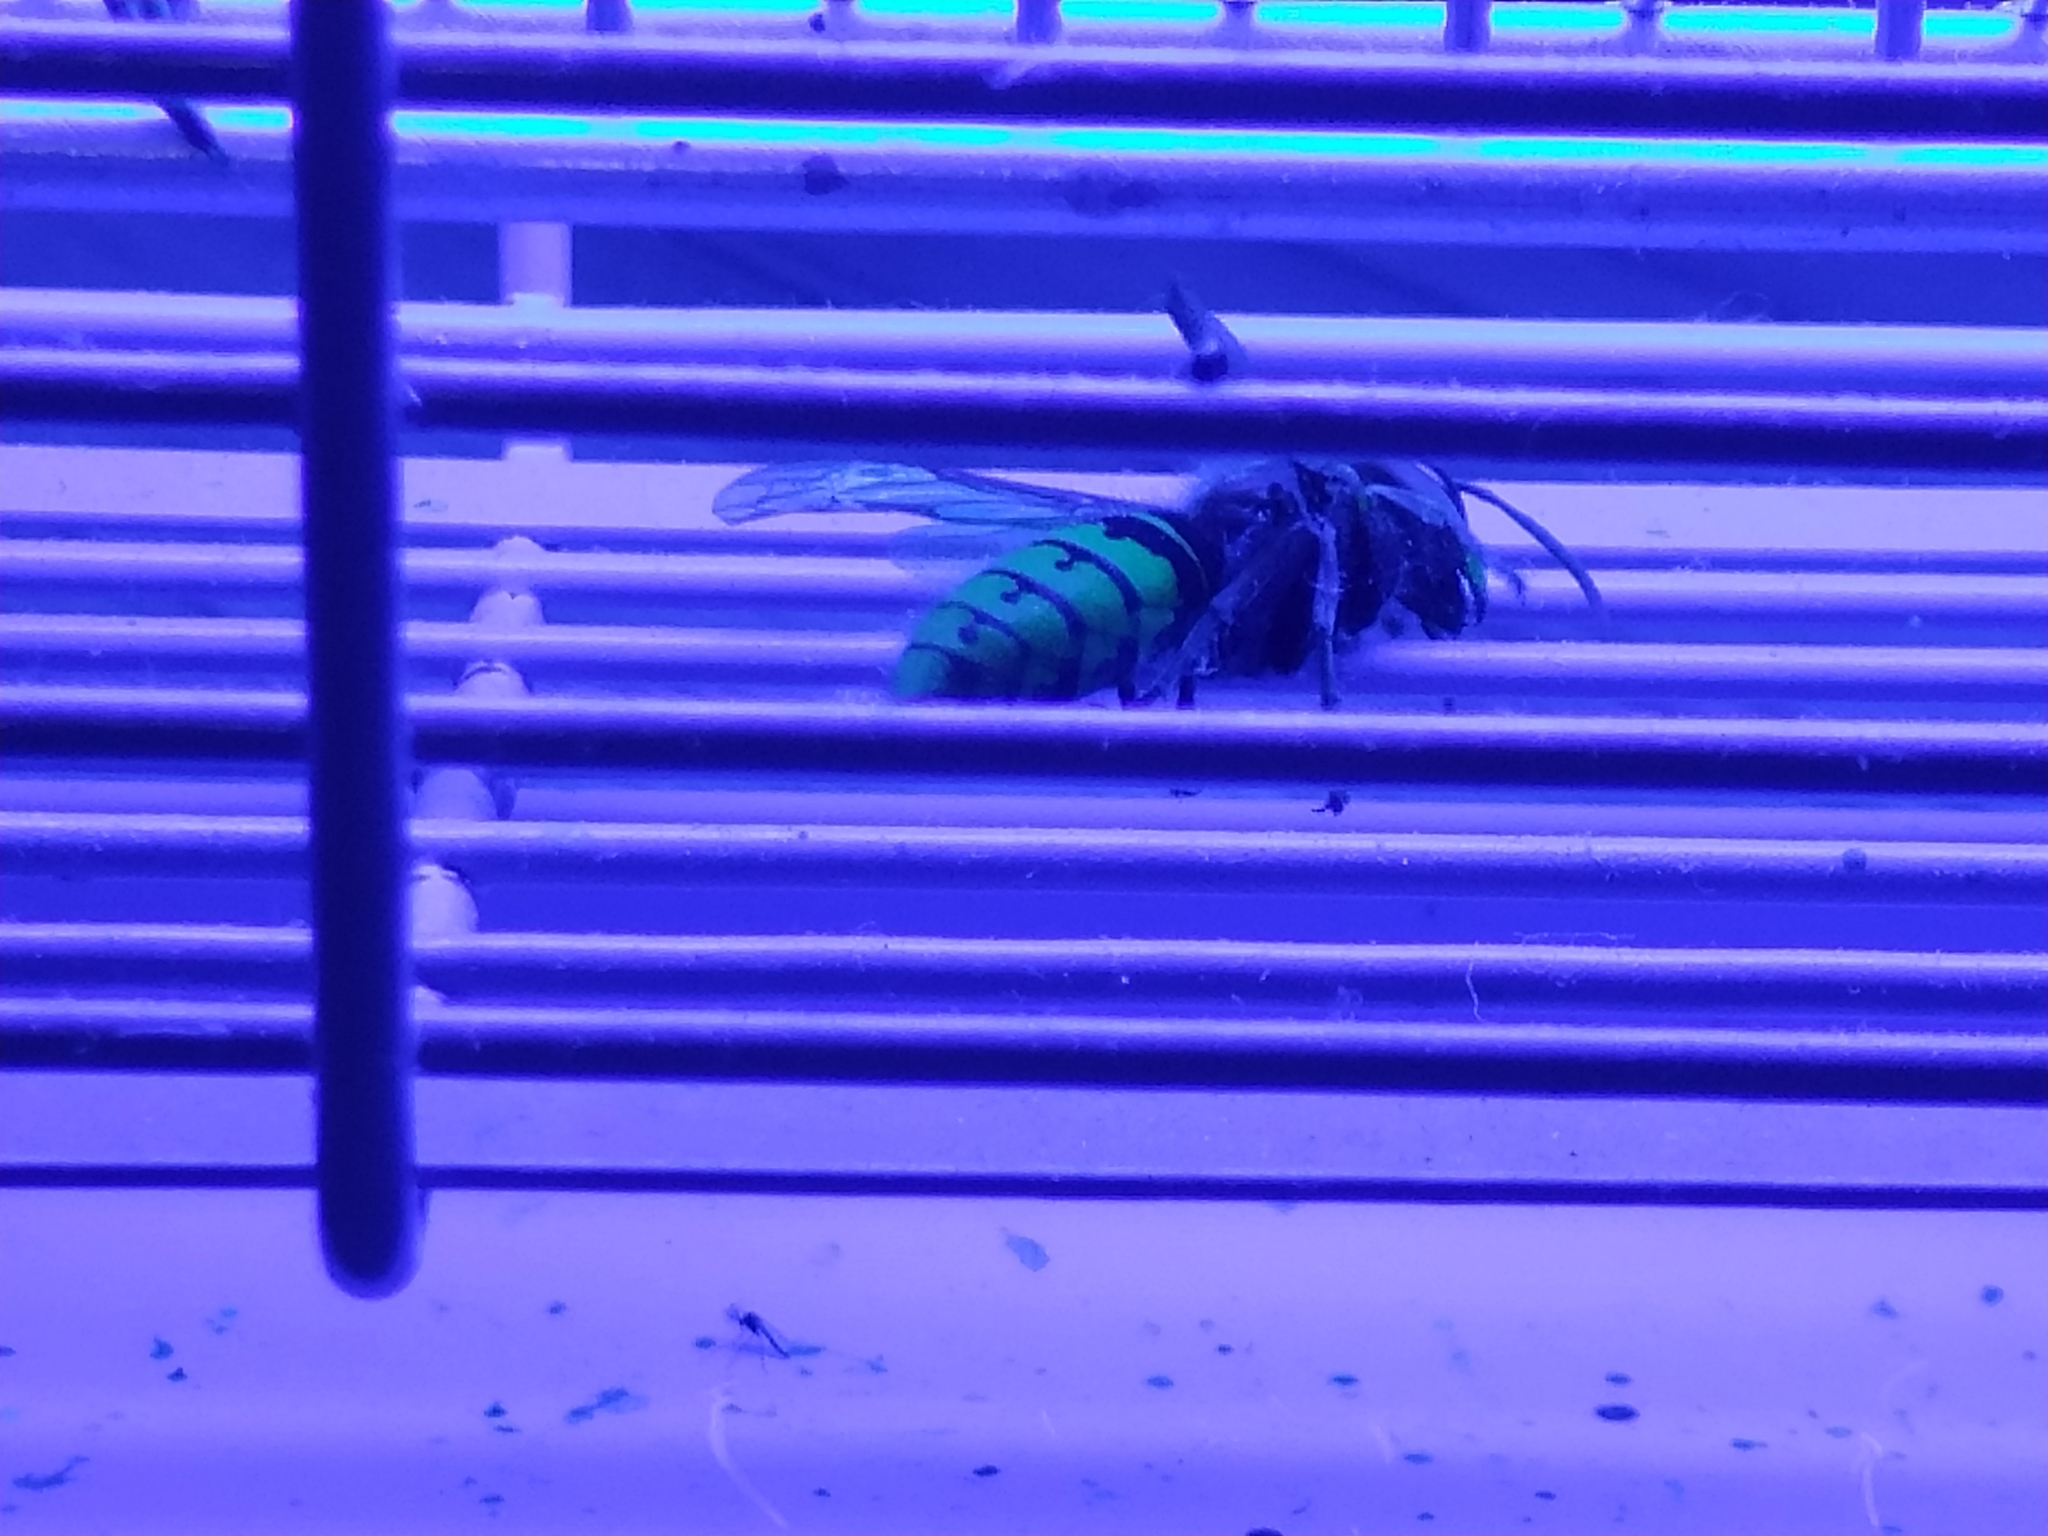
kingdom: Animalia
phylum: Arthropoda
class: Insecta
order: Hymenoptera
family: Vespidae
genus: Vespa
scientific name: Vespa crabro
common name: Hornet
